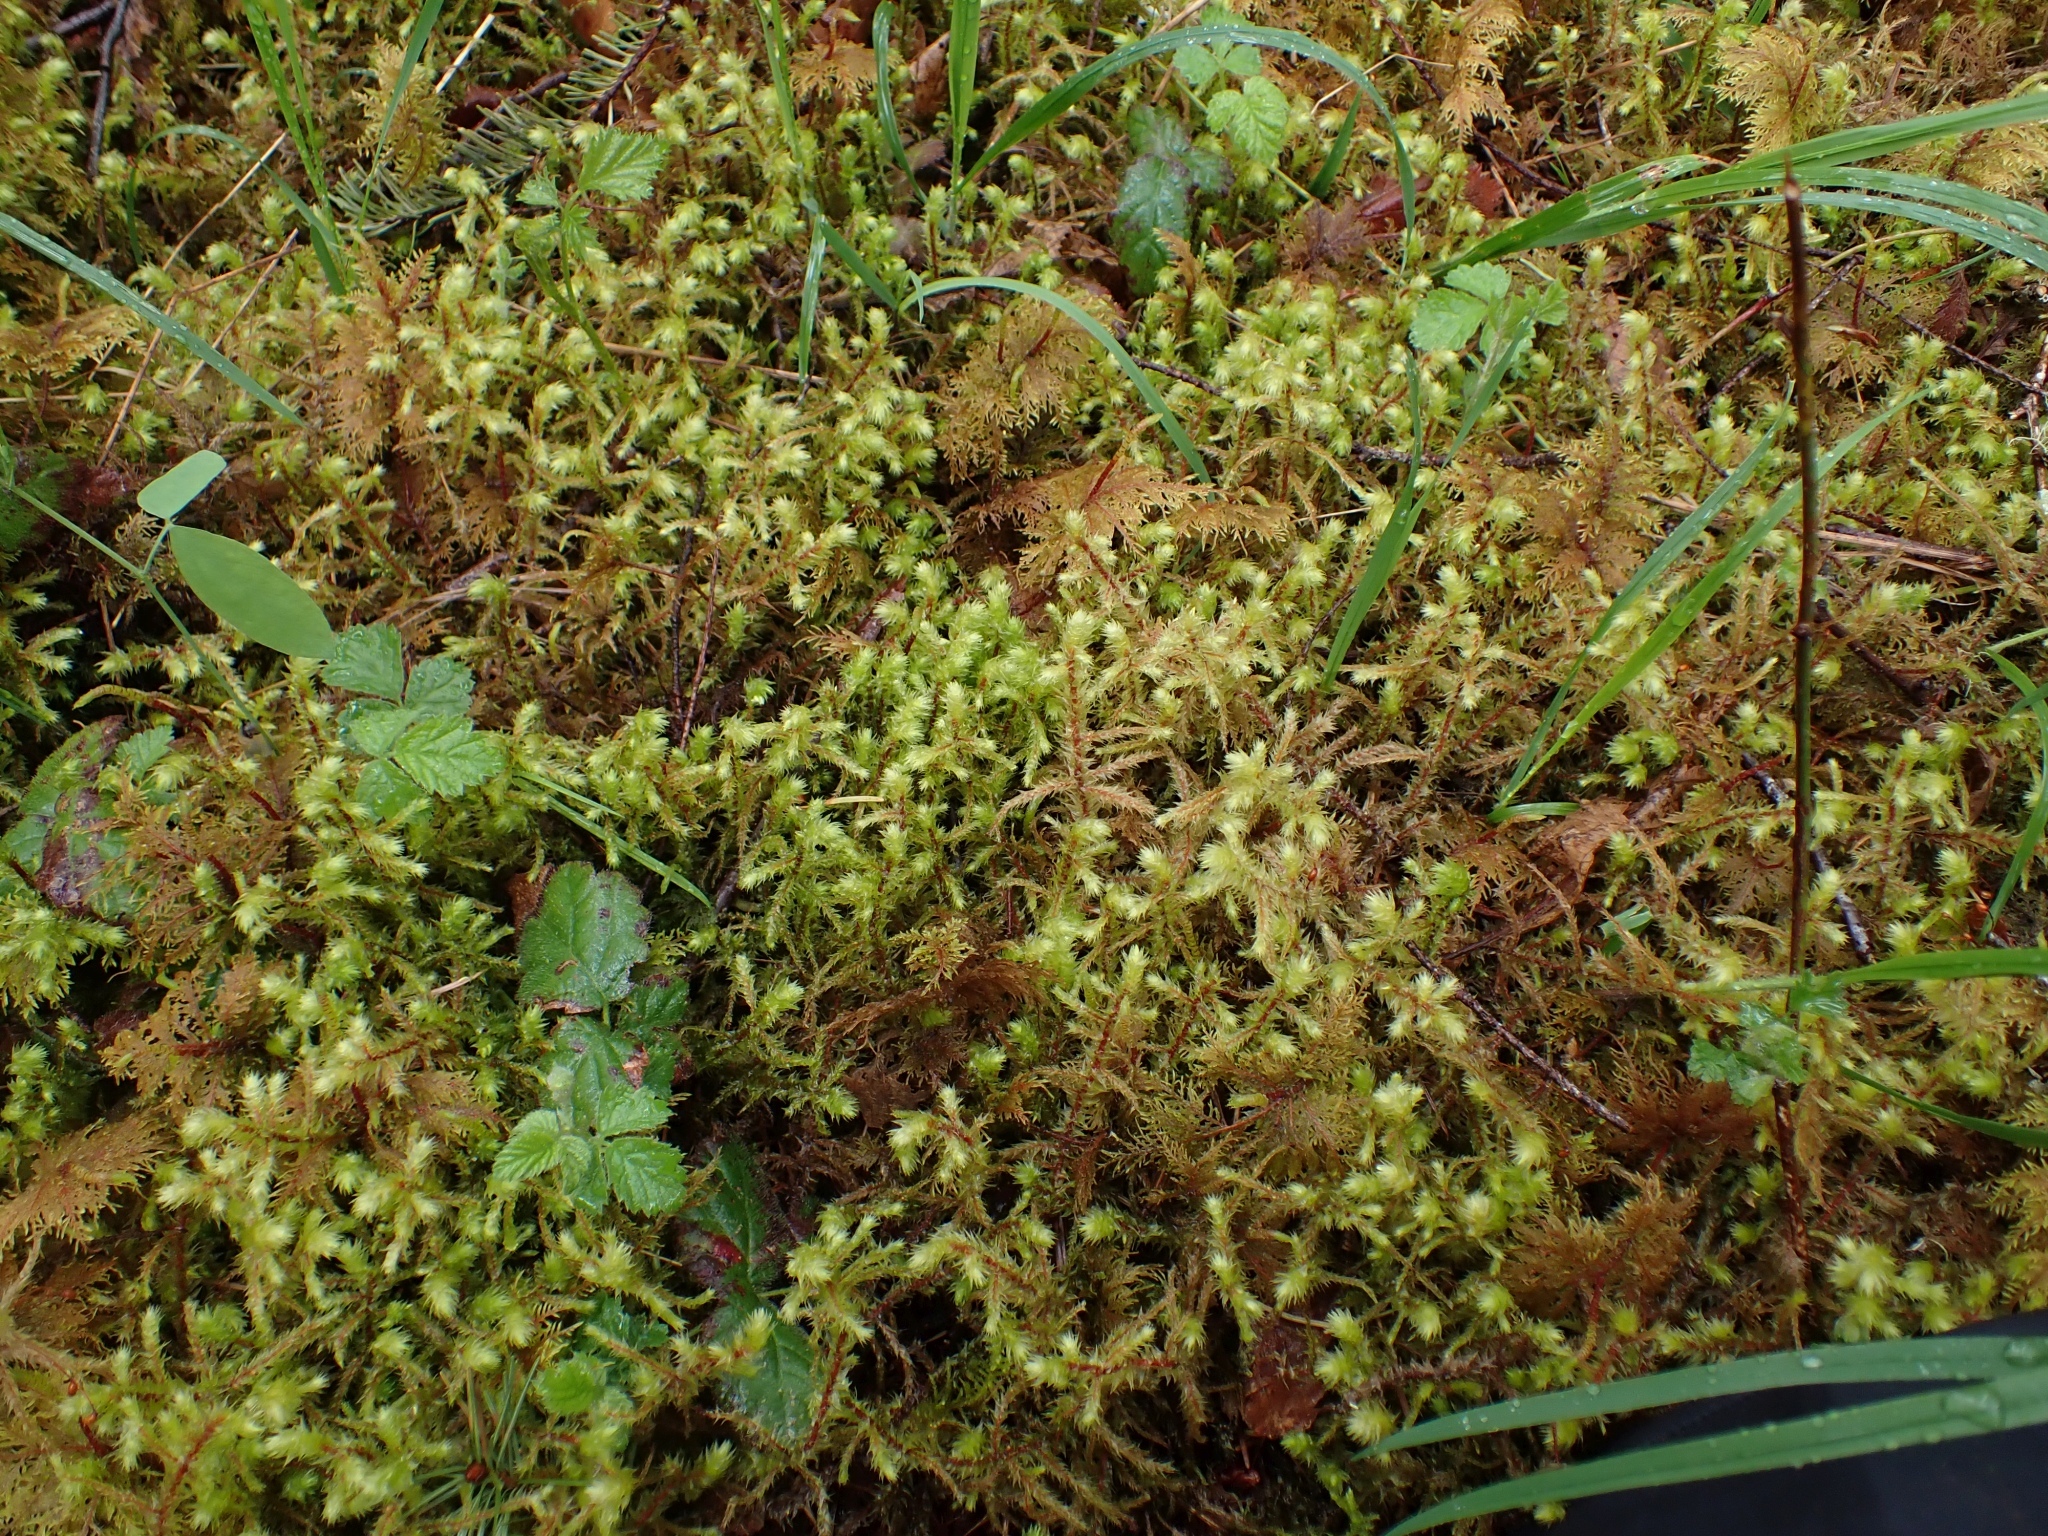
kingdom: Plantae
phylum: Bryophyta
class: Bryopsida
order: Hypnales
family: Hylocomiaceae
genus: Hylocomiadelphus
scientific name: Hylocomiadelphus triquetrus
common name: Rough goose neck moss
